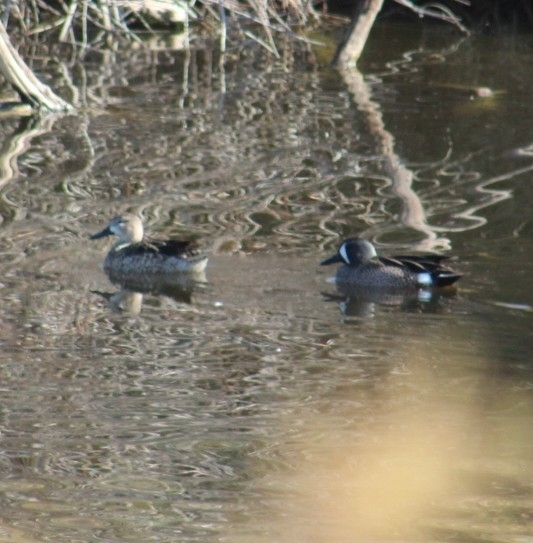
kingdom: Animalia
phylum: Chordata
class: Aves
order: Anseriformes
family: Anatidae
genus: Spatula
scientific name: Spatula discors
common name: Blue-winged teal
